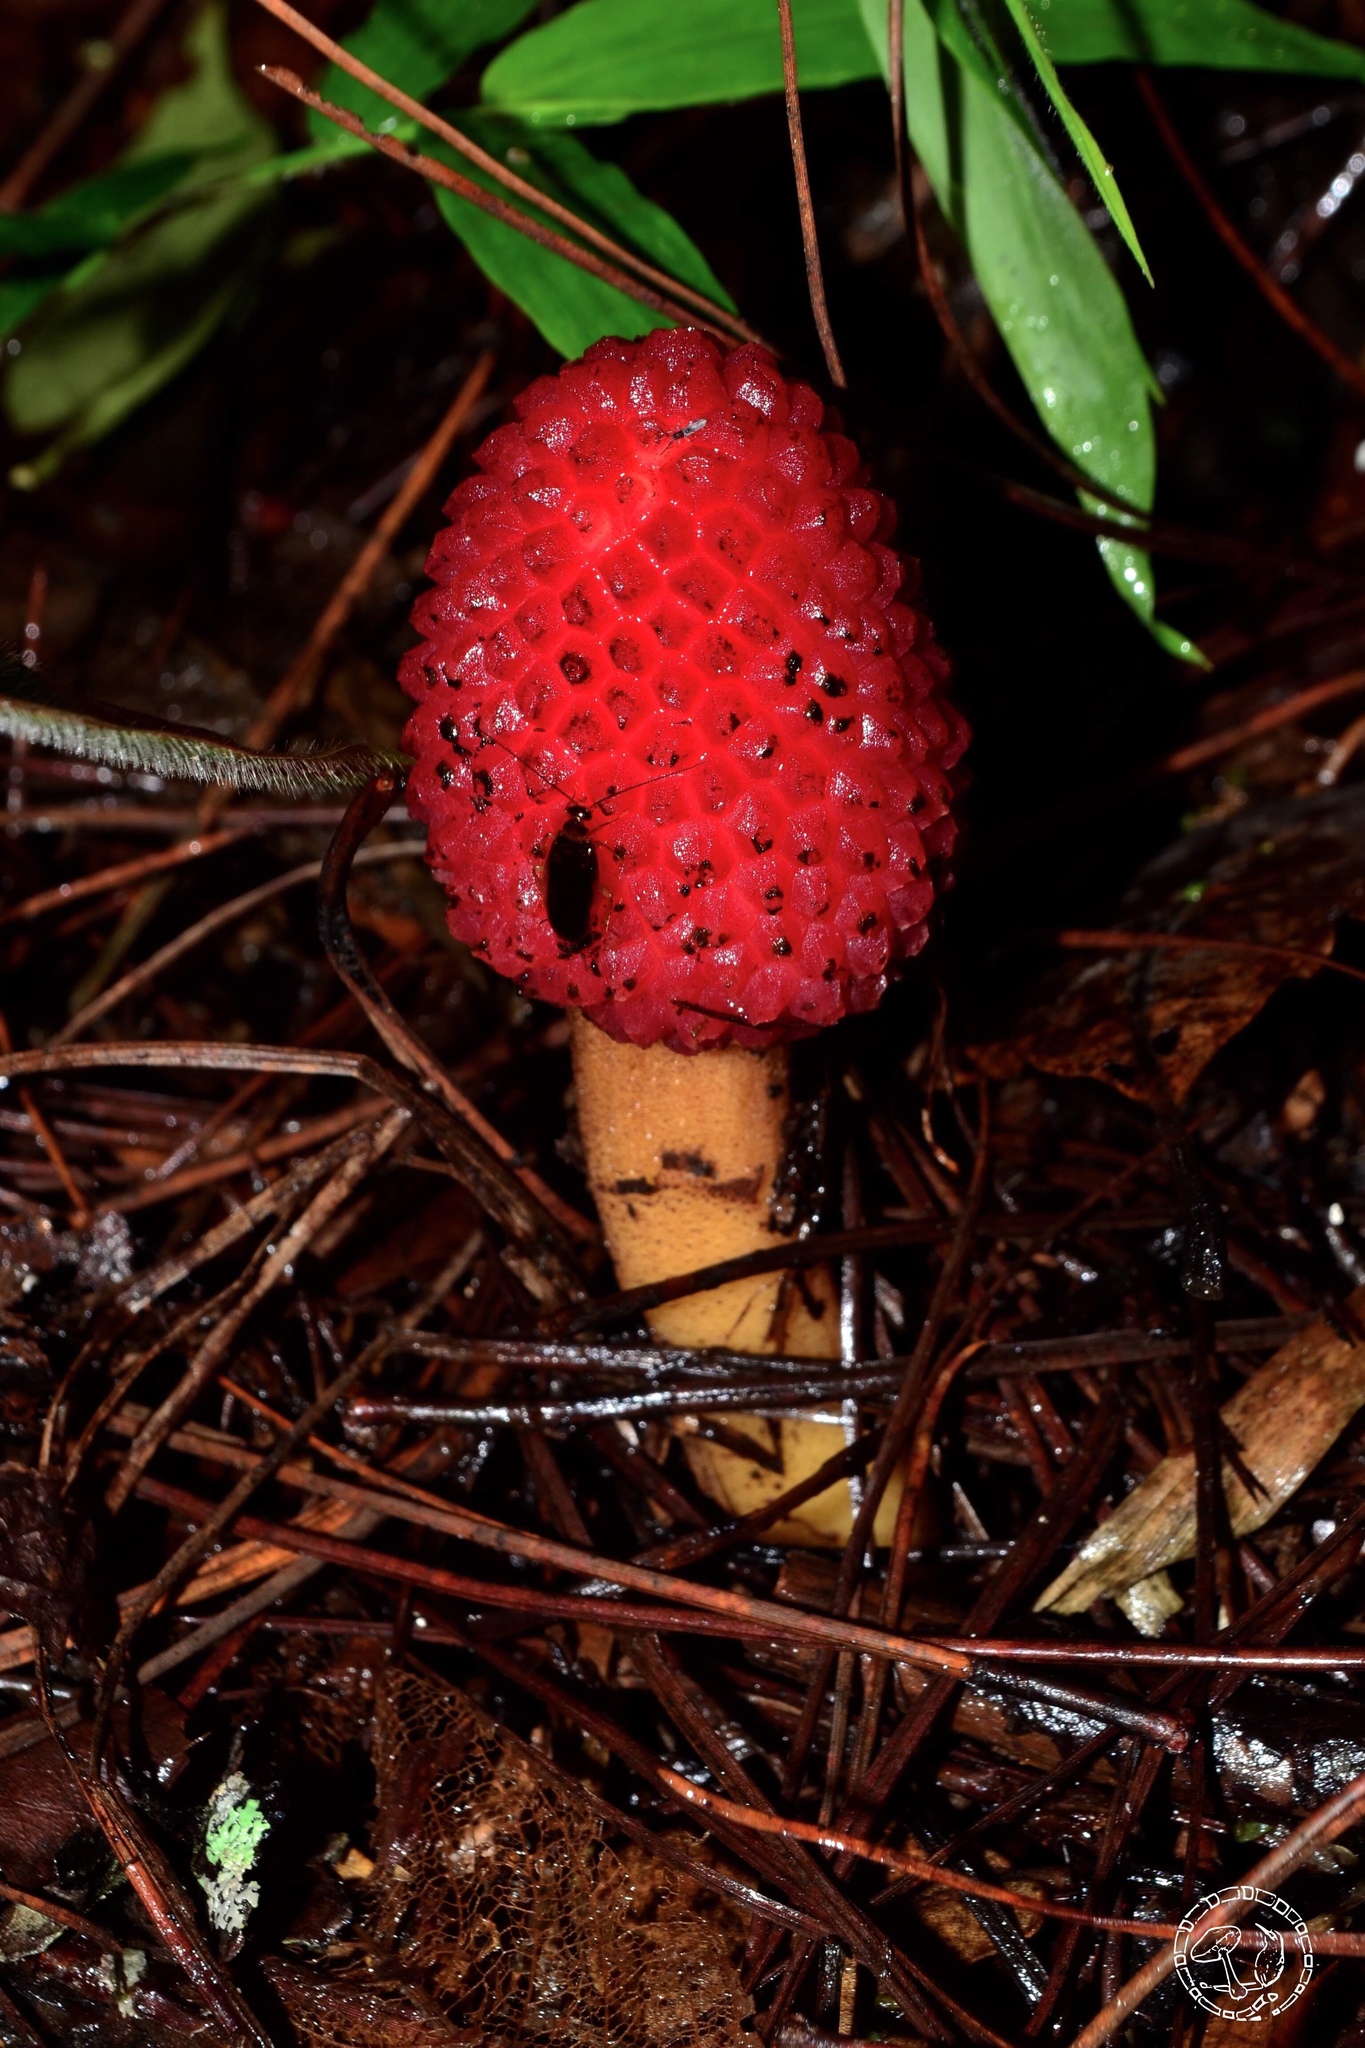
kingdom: Plantae
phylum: Tracheophyta
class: Magnoliopsida
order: Santalales
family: Balanophoraceae
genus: Helosis
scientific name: Helosis cayennensis
